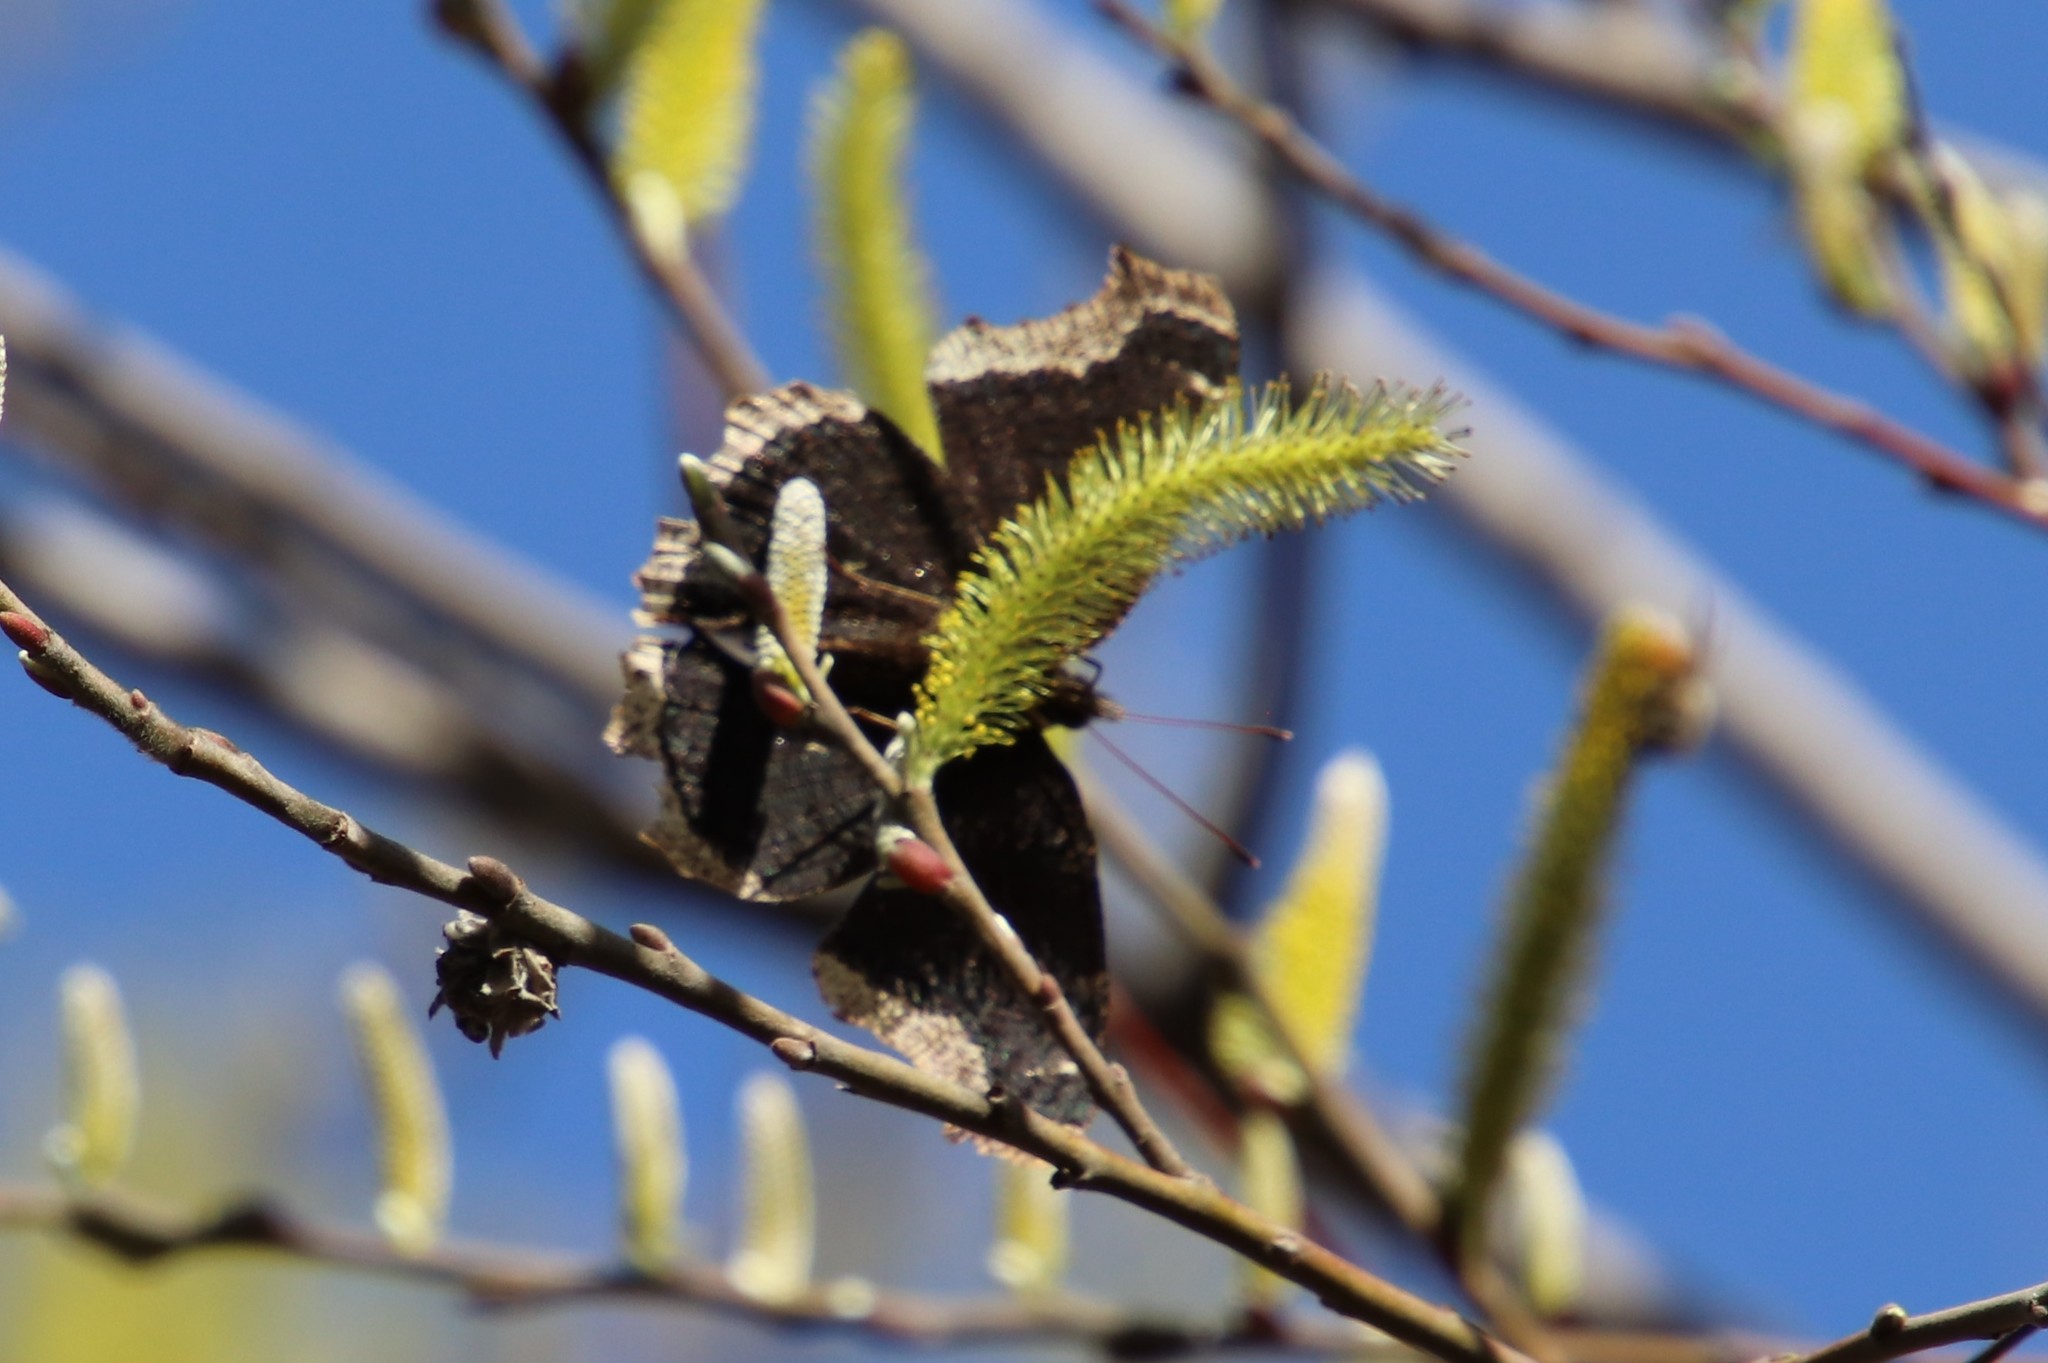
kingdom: Animalia
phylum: Arthropoda
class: Insecta
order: Lepidoptera
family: Nymphalidae
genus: Nymphalis
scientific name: Nymphalis antiopa
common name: Camberwell beauty
